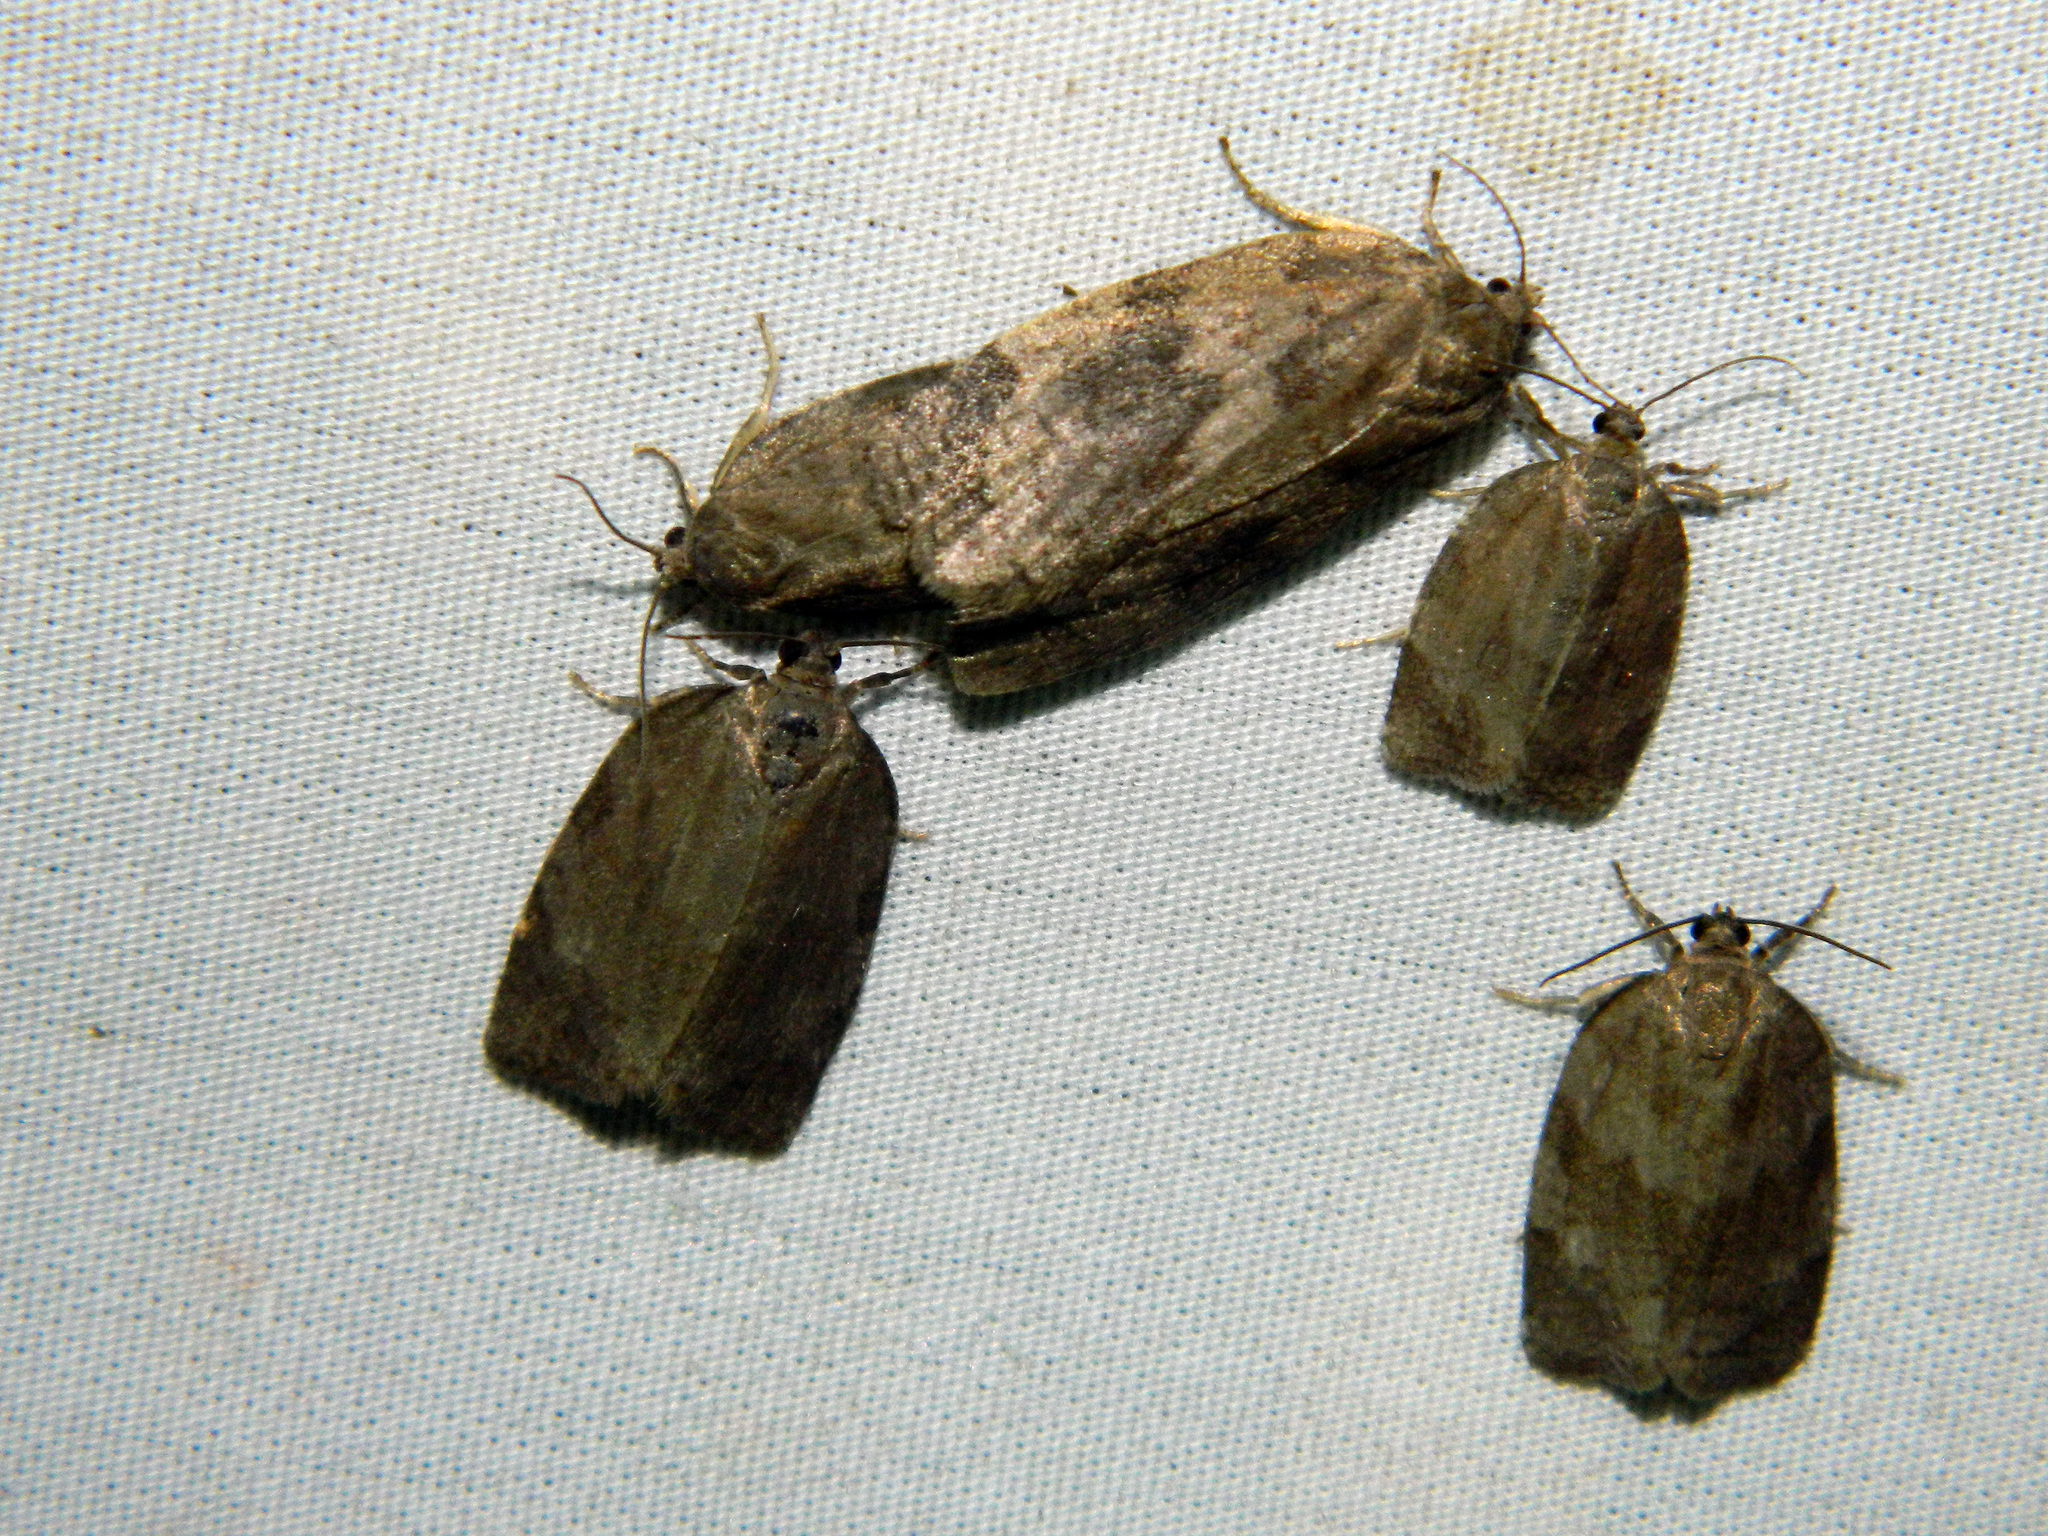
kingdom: Animalia
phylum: Arthropoda
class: Insecta
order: Lepidoptera
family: Tortricidae
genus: Choristoneura
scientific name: Choristoneura conflictana
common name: Large aspen tortrix
